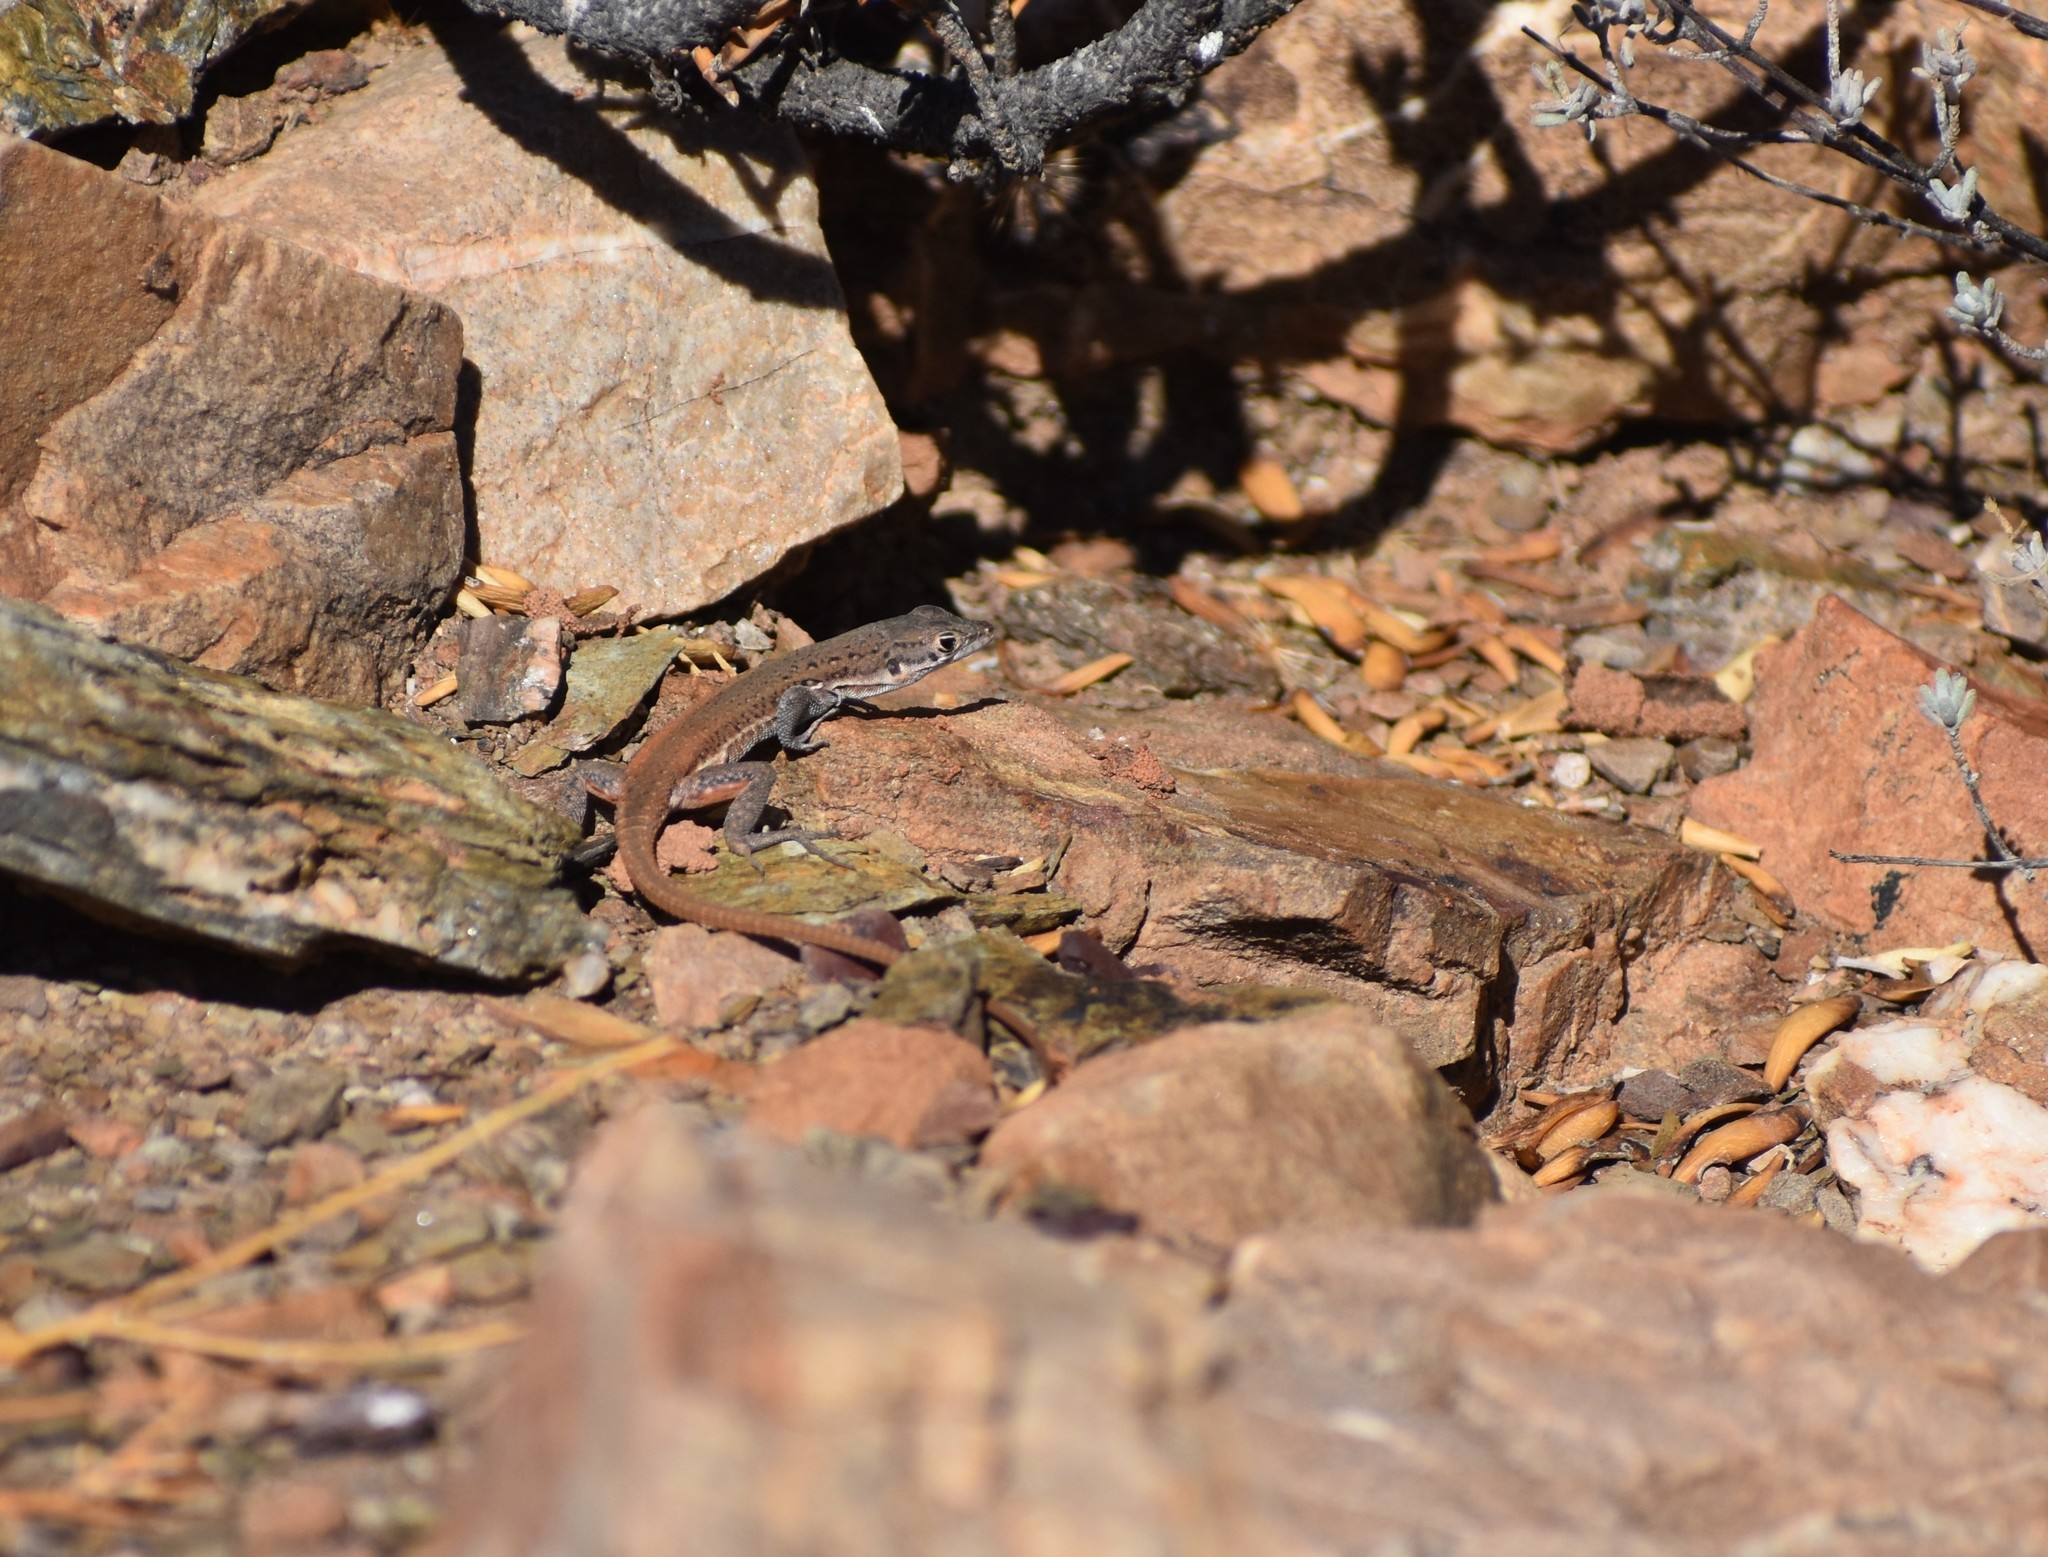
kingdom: Animalia
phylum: Chordata
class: Squamata
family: Lacertidae
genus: Pedioplanis
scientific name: Pedioplanis lineoocellata
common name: Spotted sand lizard
